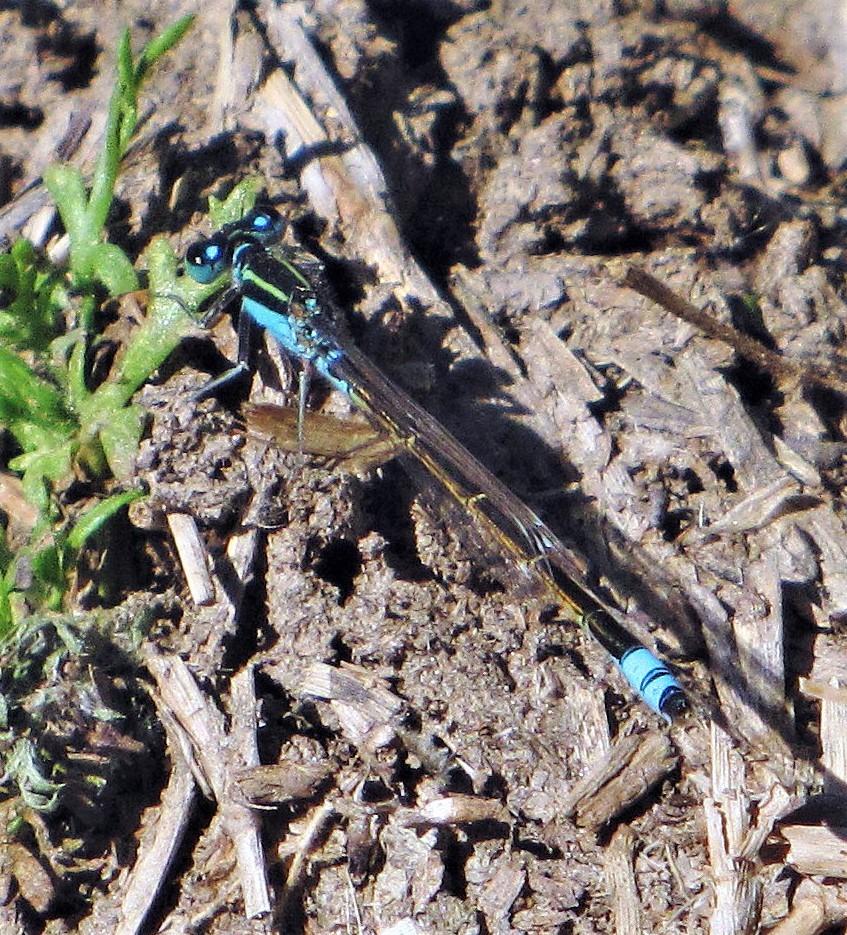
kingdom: Animalia
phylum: Arthropoda
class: Insecta
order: Odonata
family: Coenagrionidae
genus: Ischnura
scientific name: Ischnura fluviatilis
